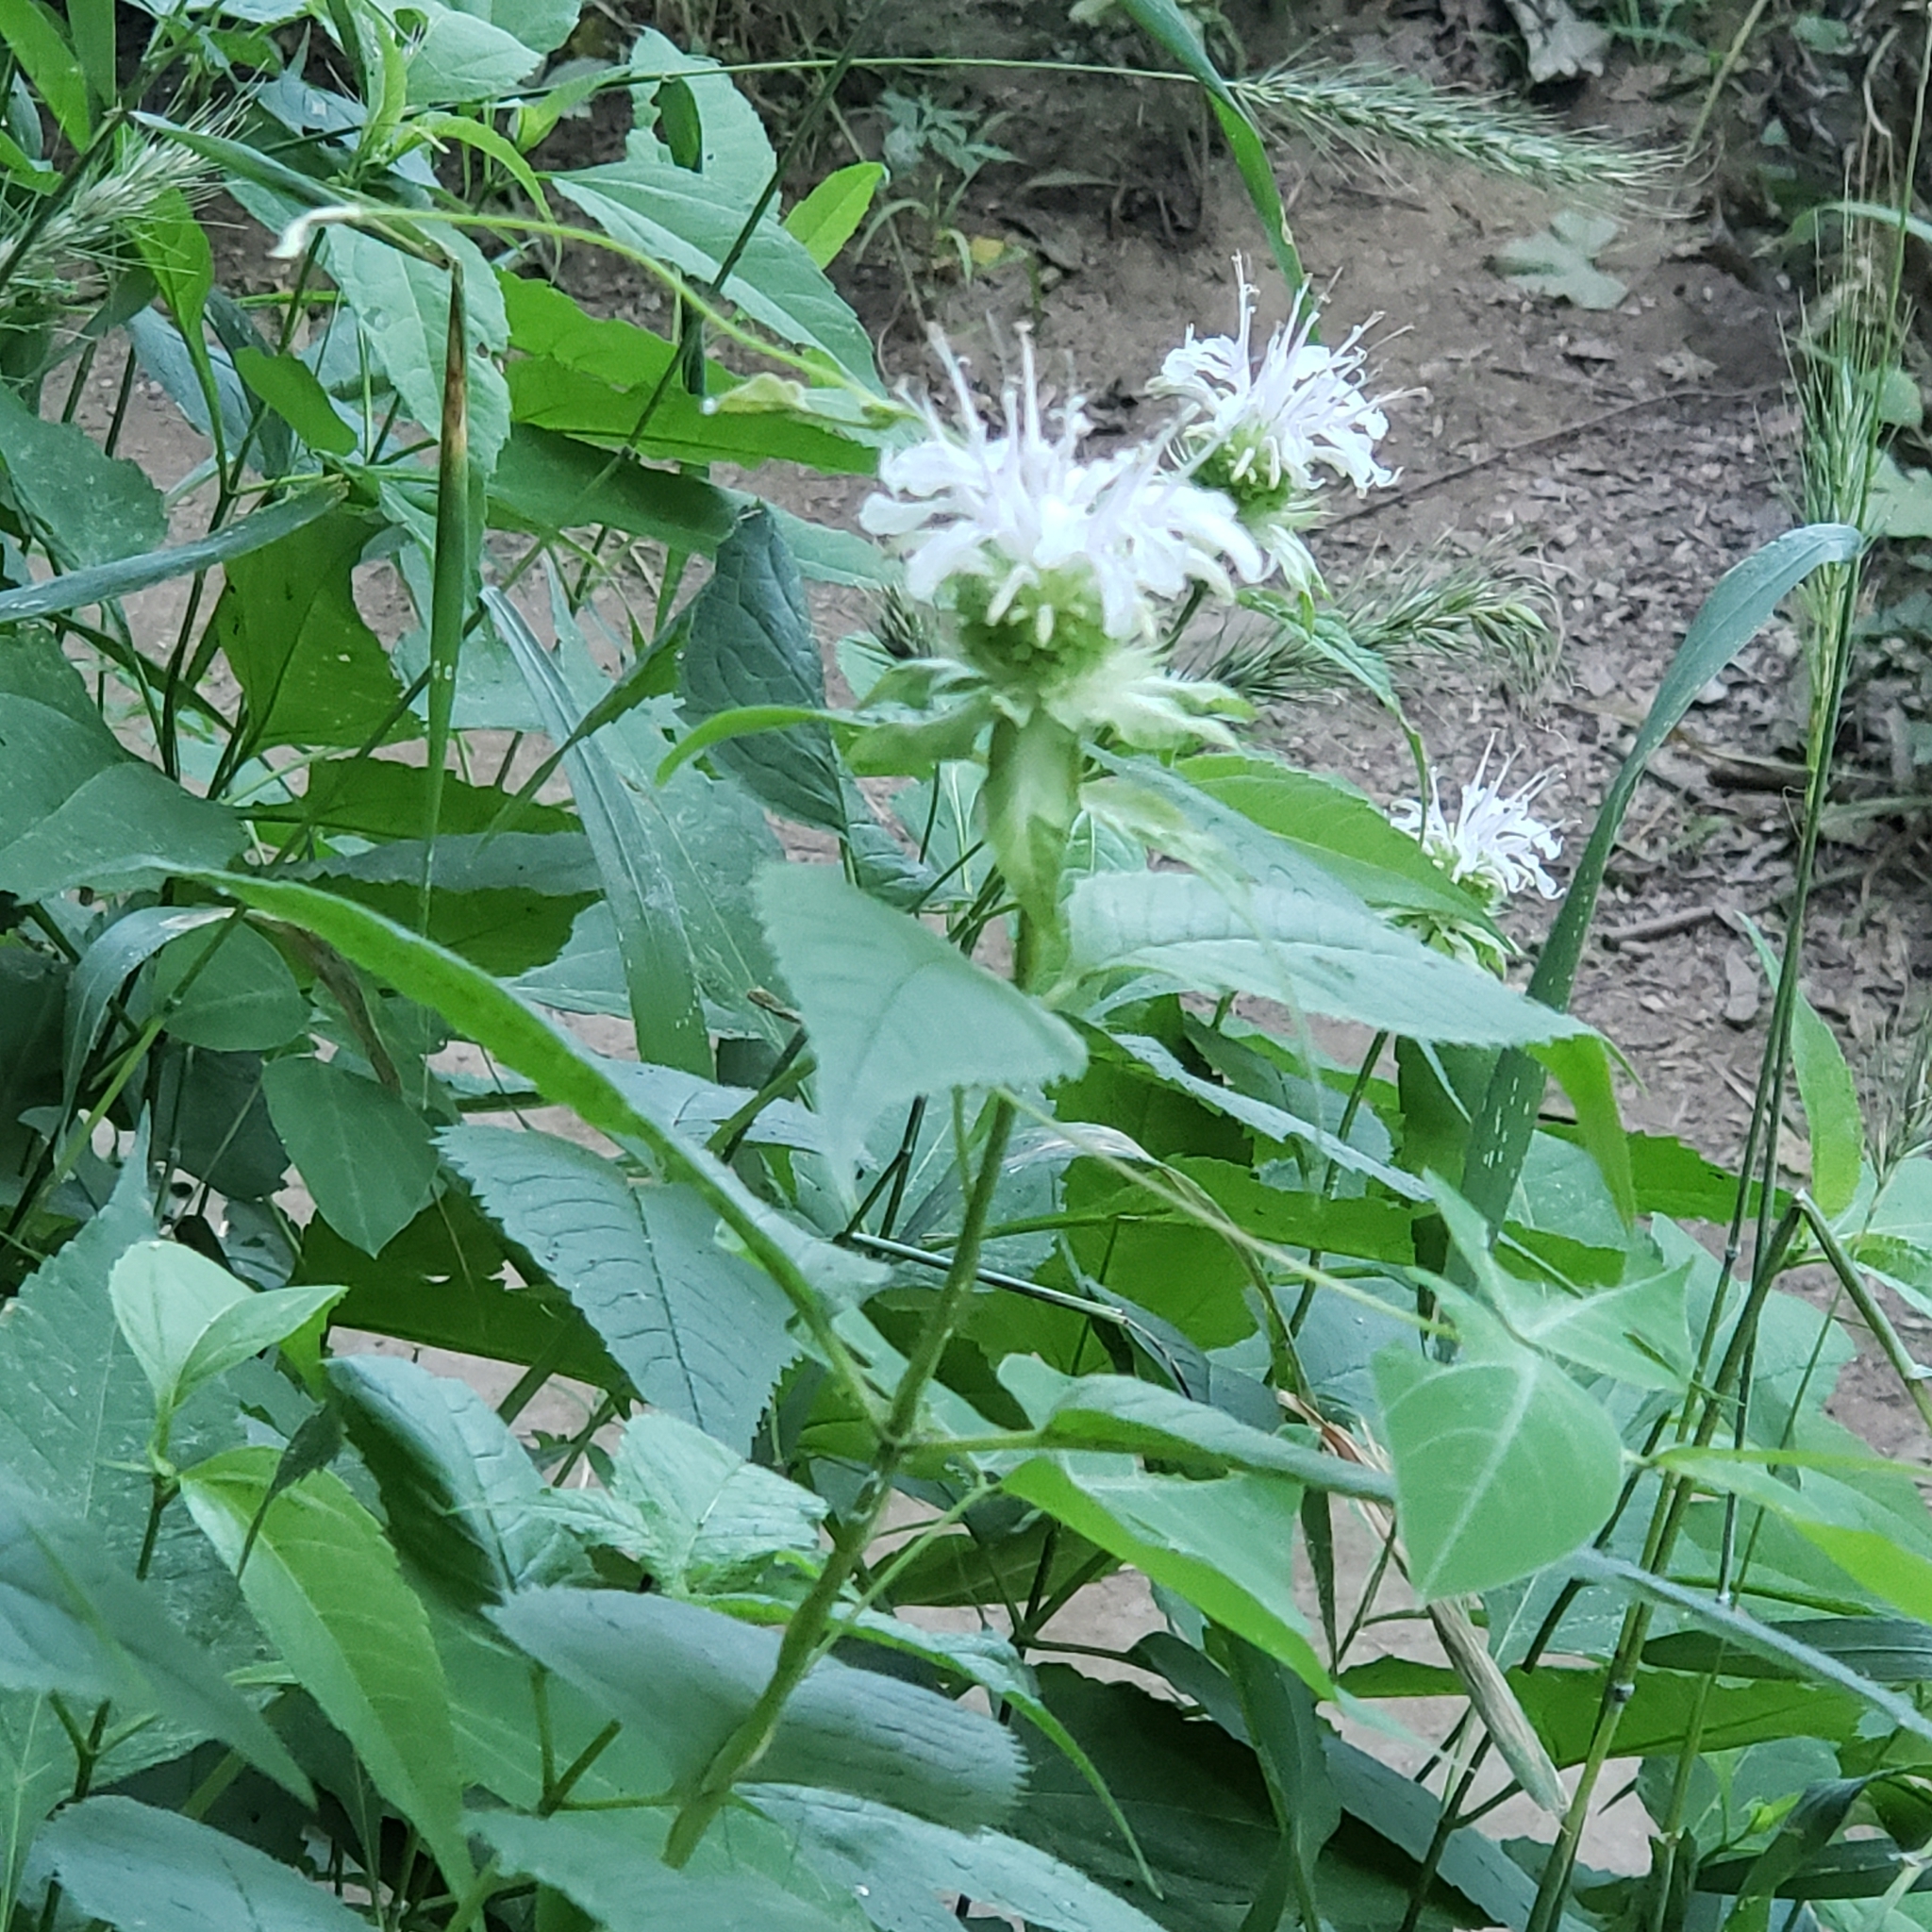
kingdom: Plantae
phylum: Tracheophyta
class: Magnoliopsida
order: Lamiales
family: Lamiaceae
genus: Monarda
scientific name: Monarda clinopodia
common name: Basil beebalm
